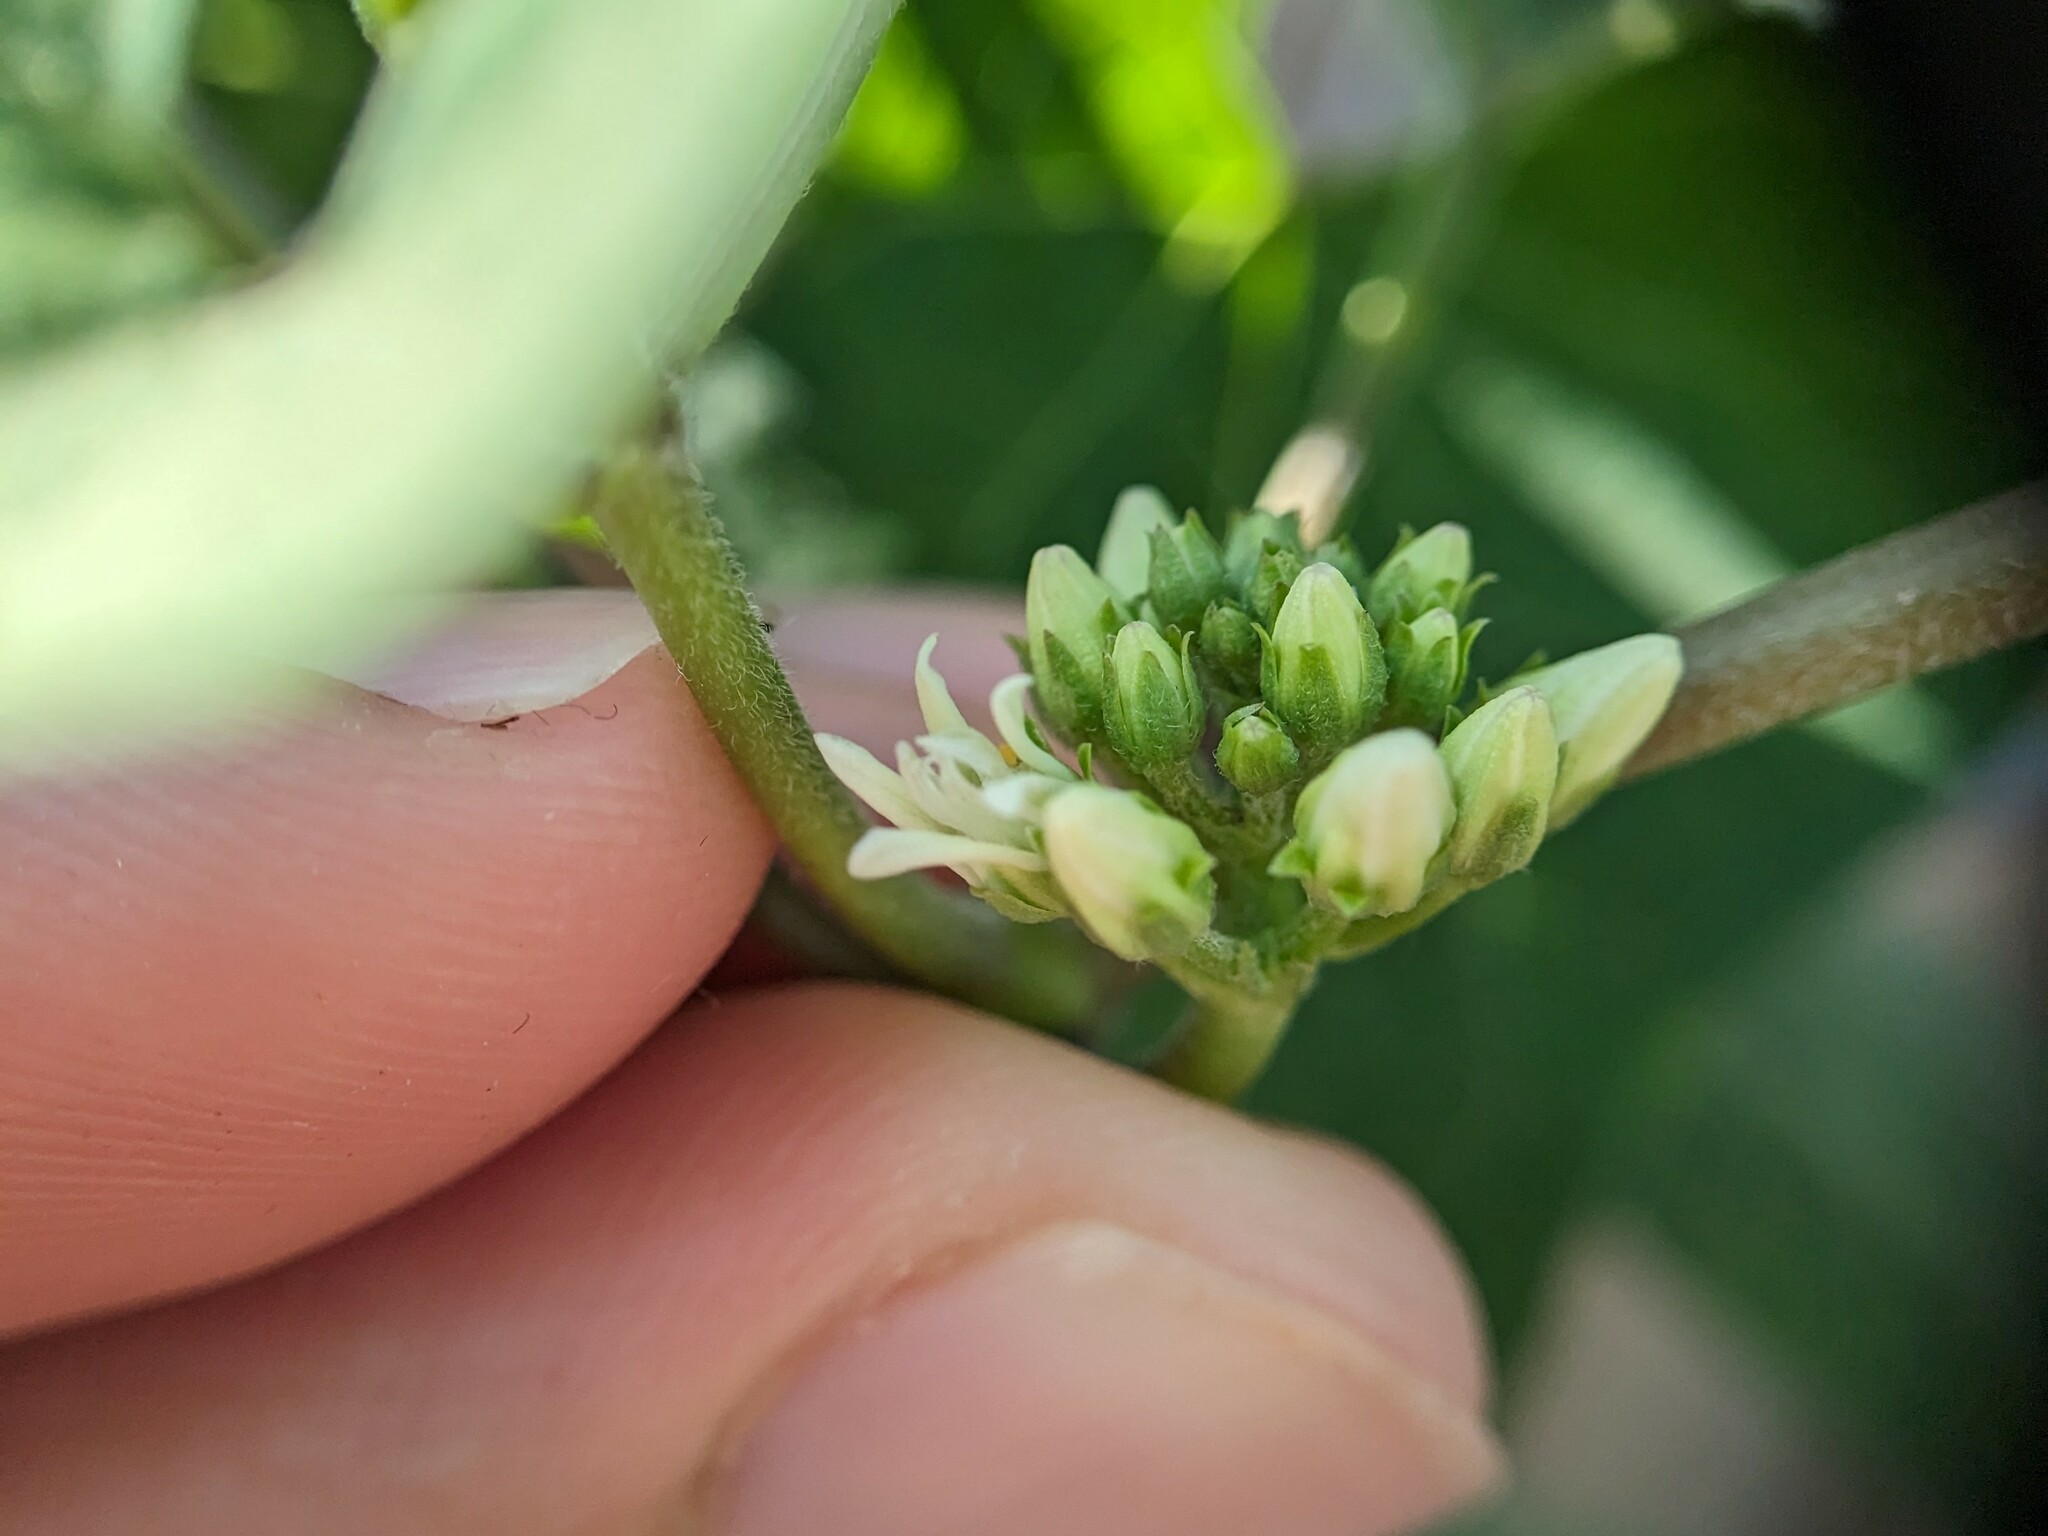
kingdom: Plantae
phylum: Tracheophyta
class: Magnoliopsida
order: Gentianales
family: Apocynaceae
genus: Cynanchum
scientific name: Cynanchum laeve
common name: Sandvine
